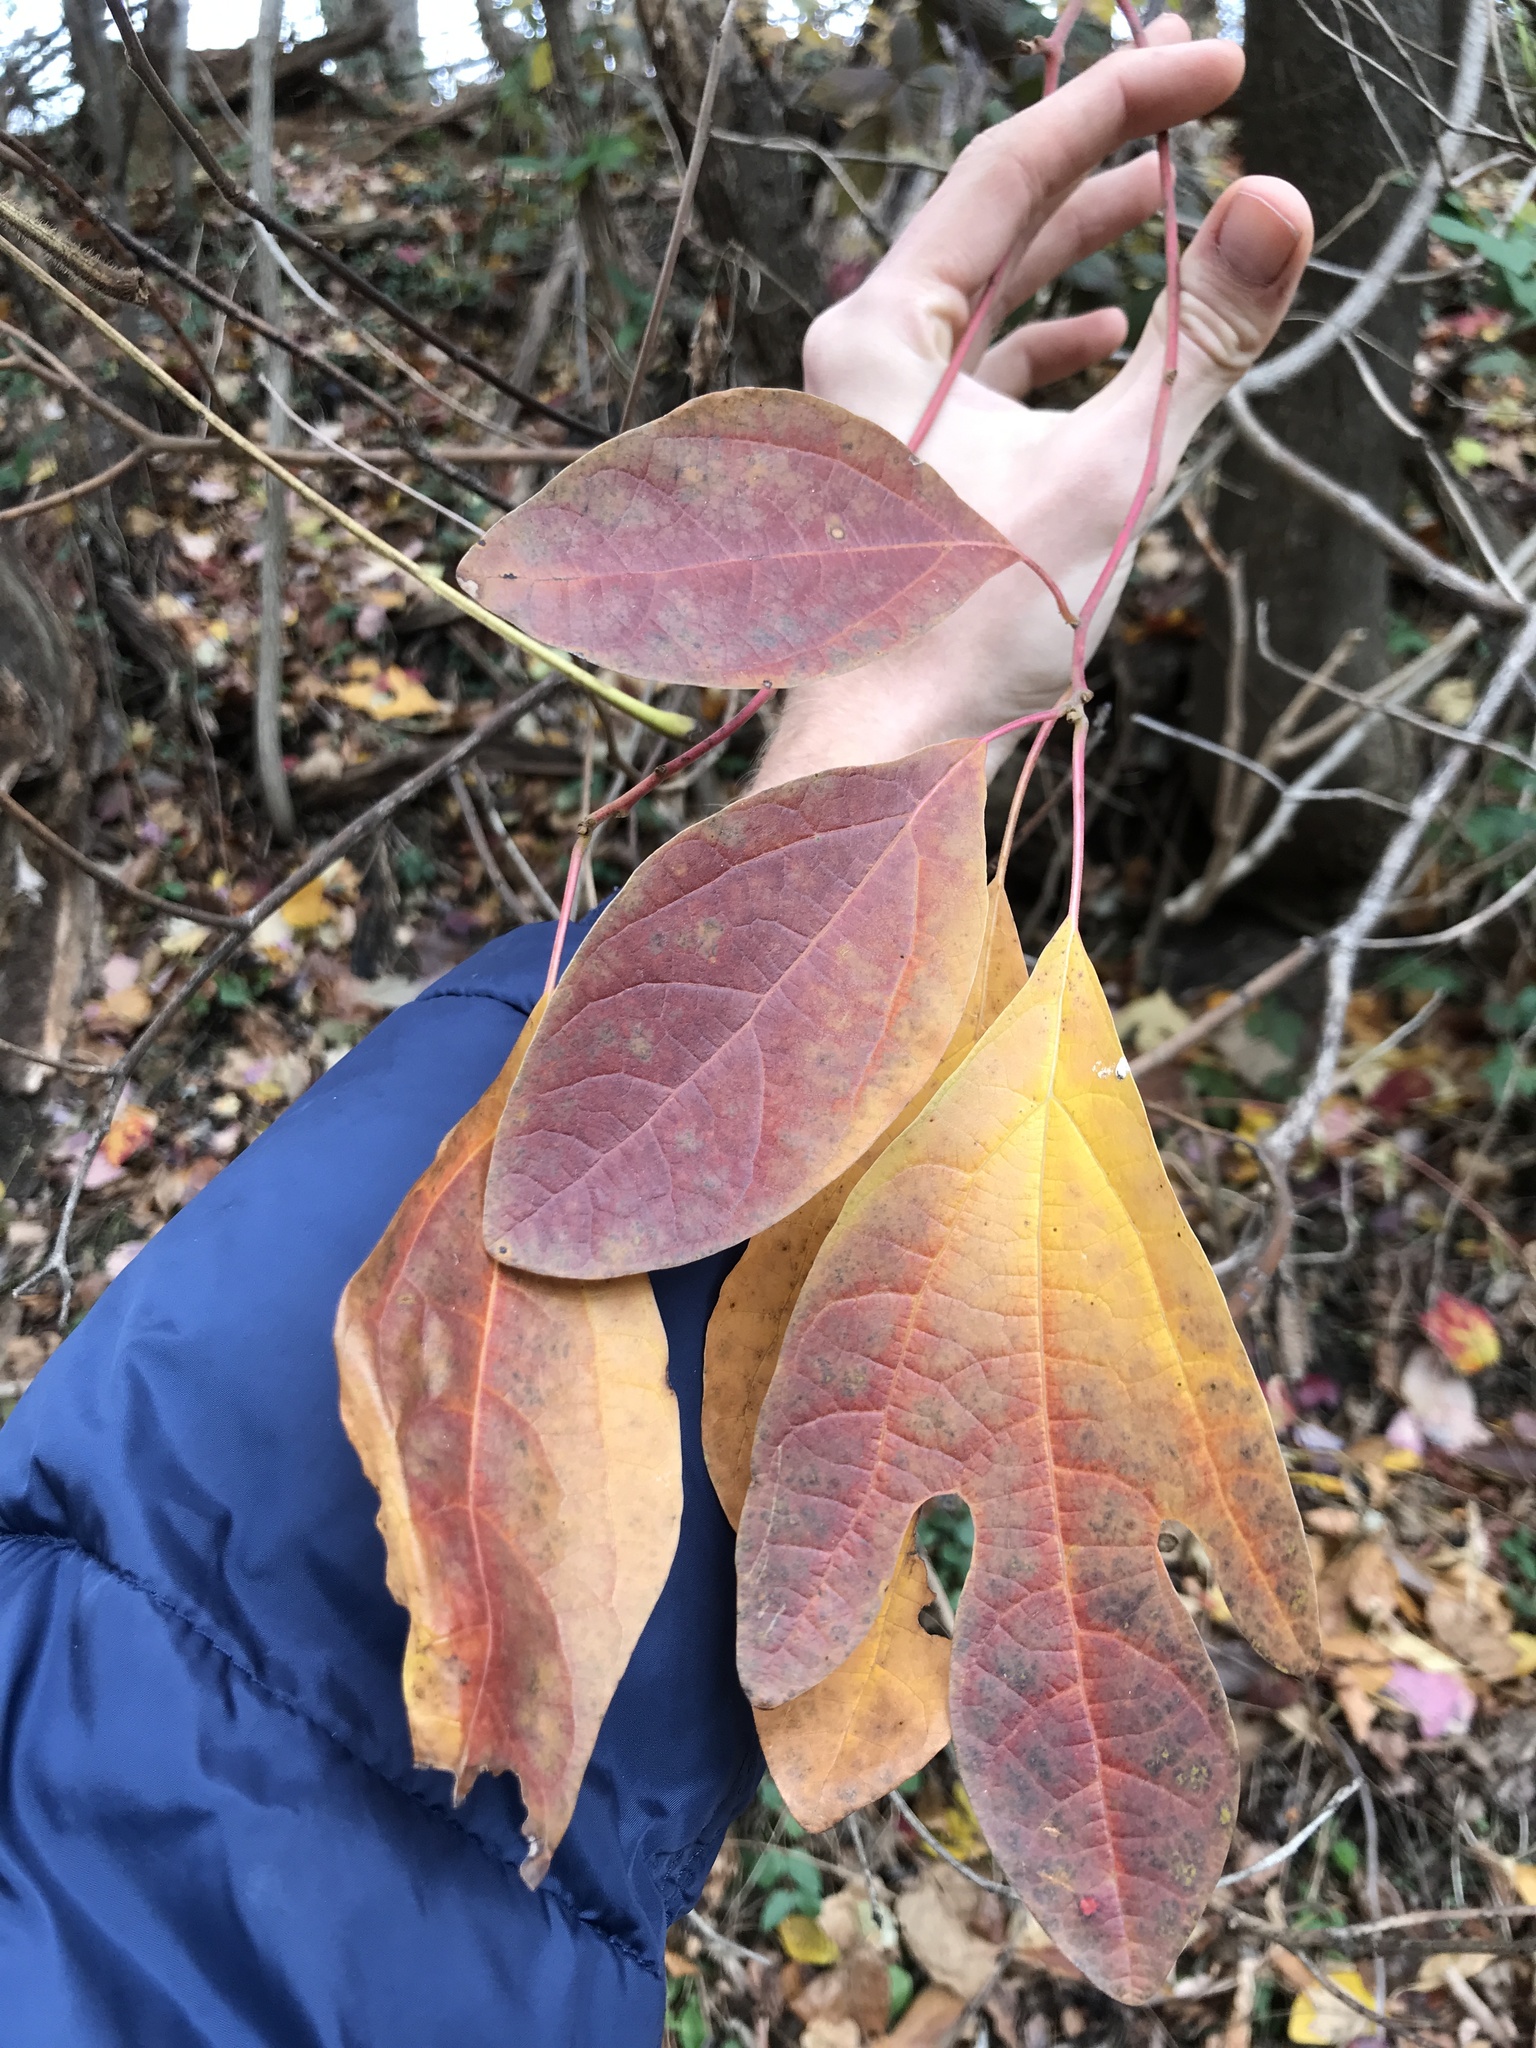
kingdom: Plantae
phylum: Tracheophyta
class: Magnoliopsida
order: Laurales
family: Lauraceae
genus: Sassafras
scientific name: Sassafras albidum
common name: Sassafras
